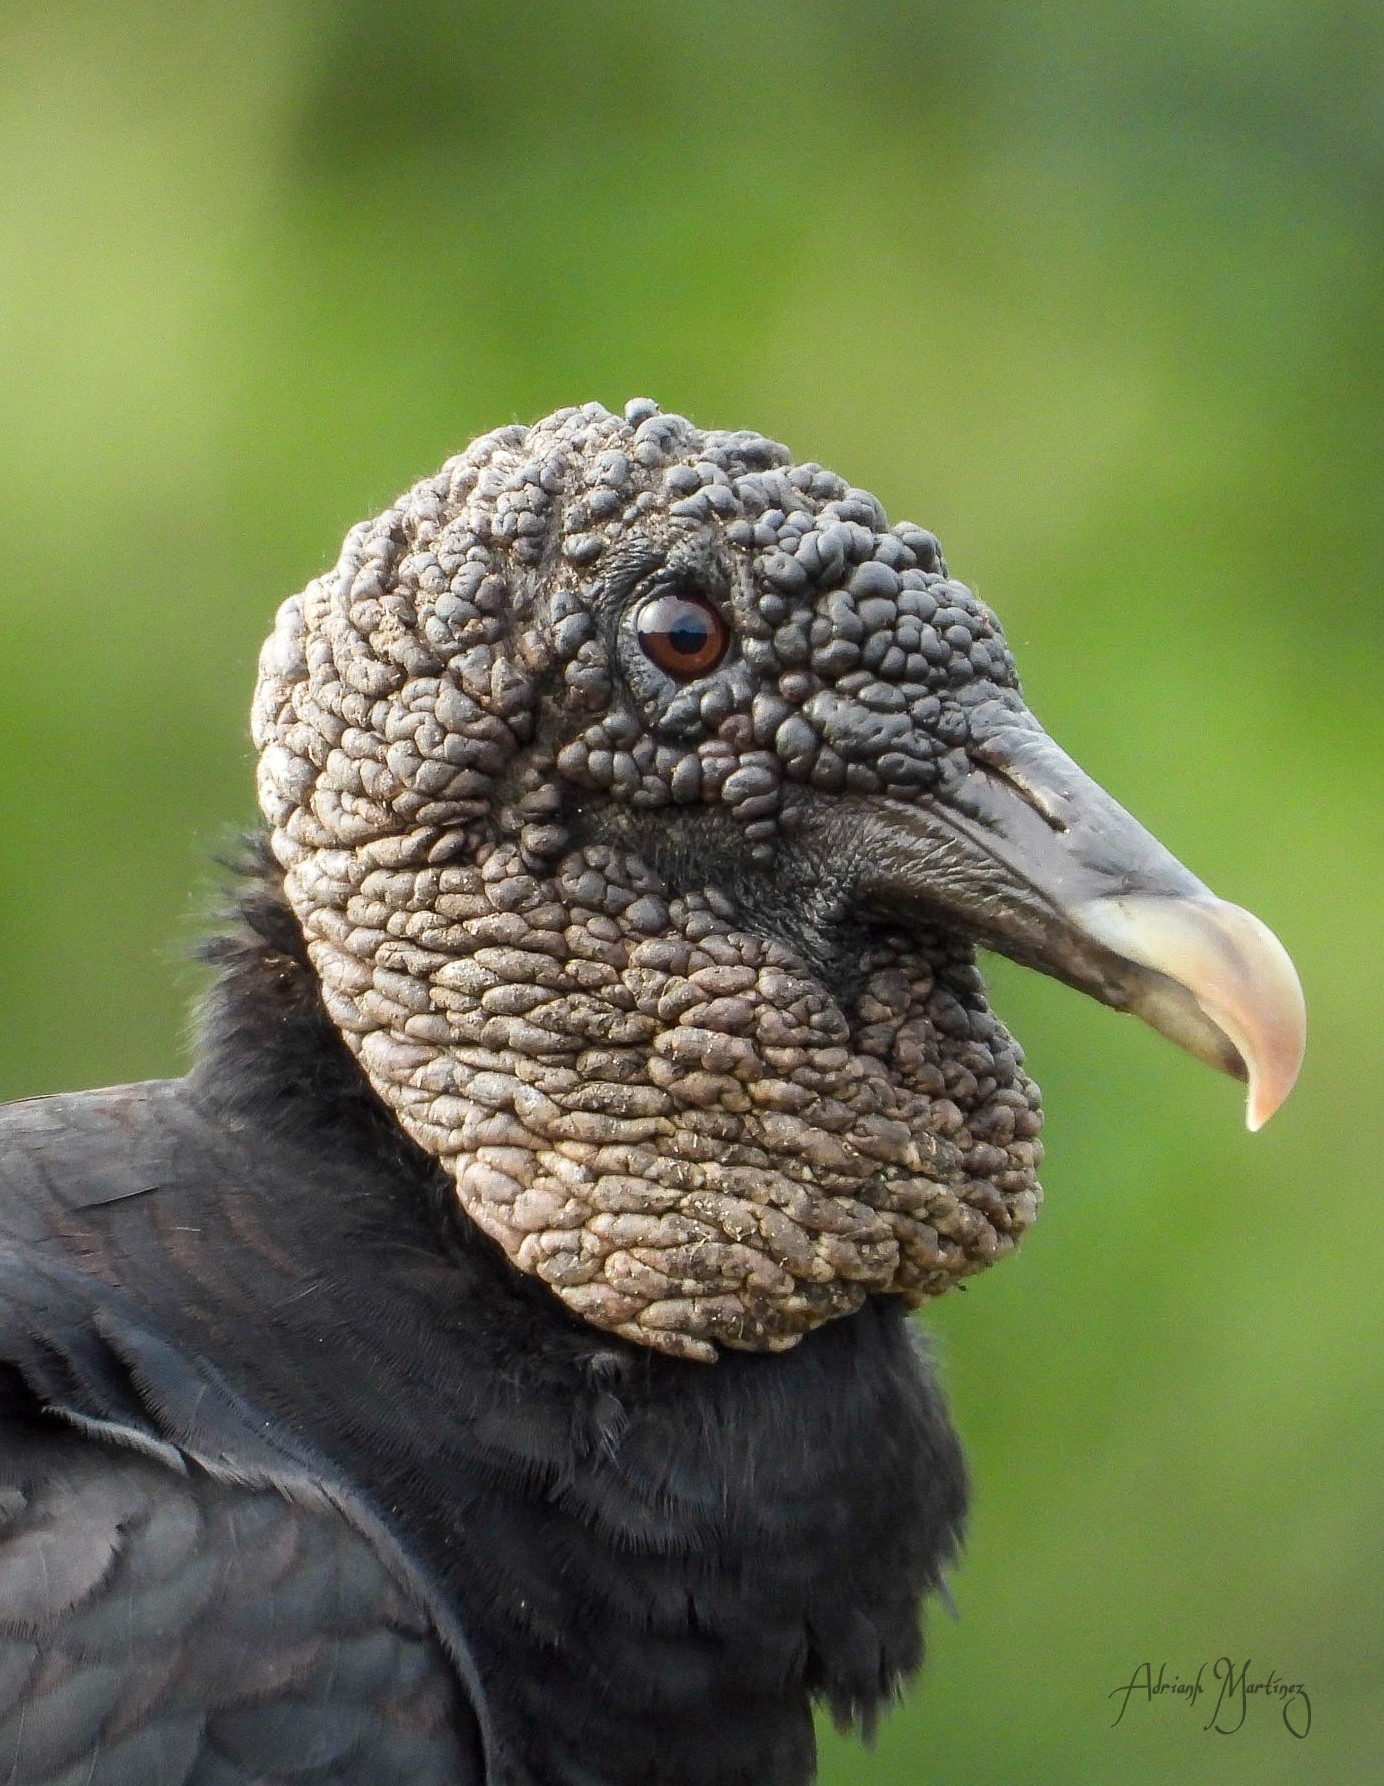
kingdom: Animalia
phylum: Chordata
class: Aves
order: Accipitriformes
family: Cathartidae
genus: Coragyps
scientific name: Coragyps atratus
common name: Black vulture
